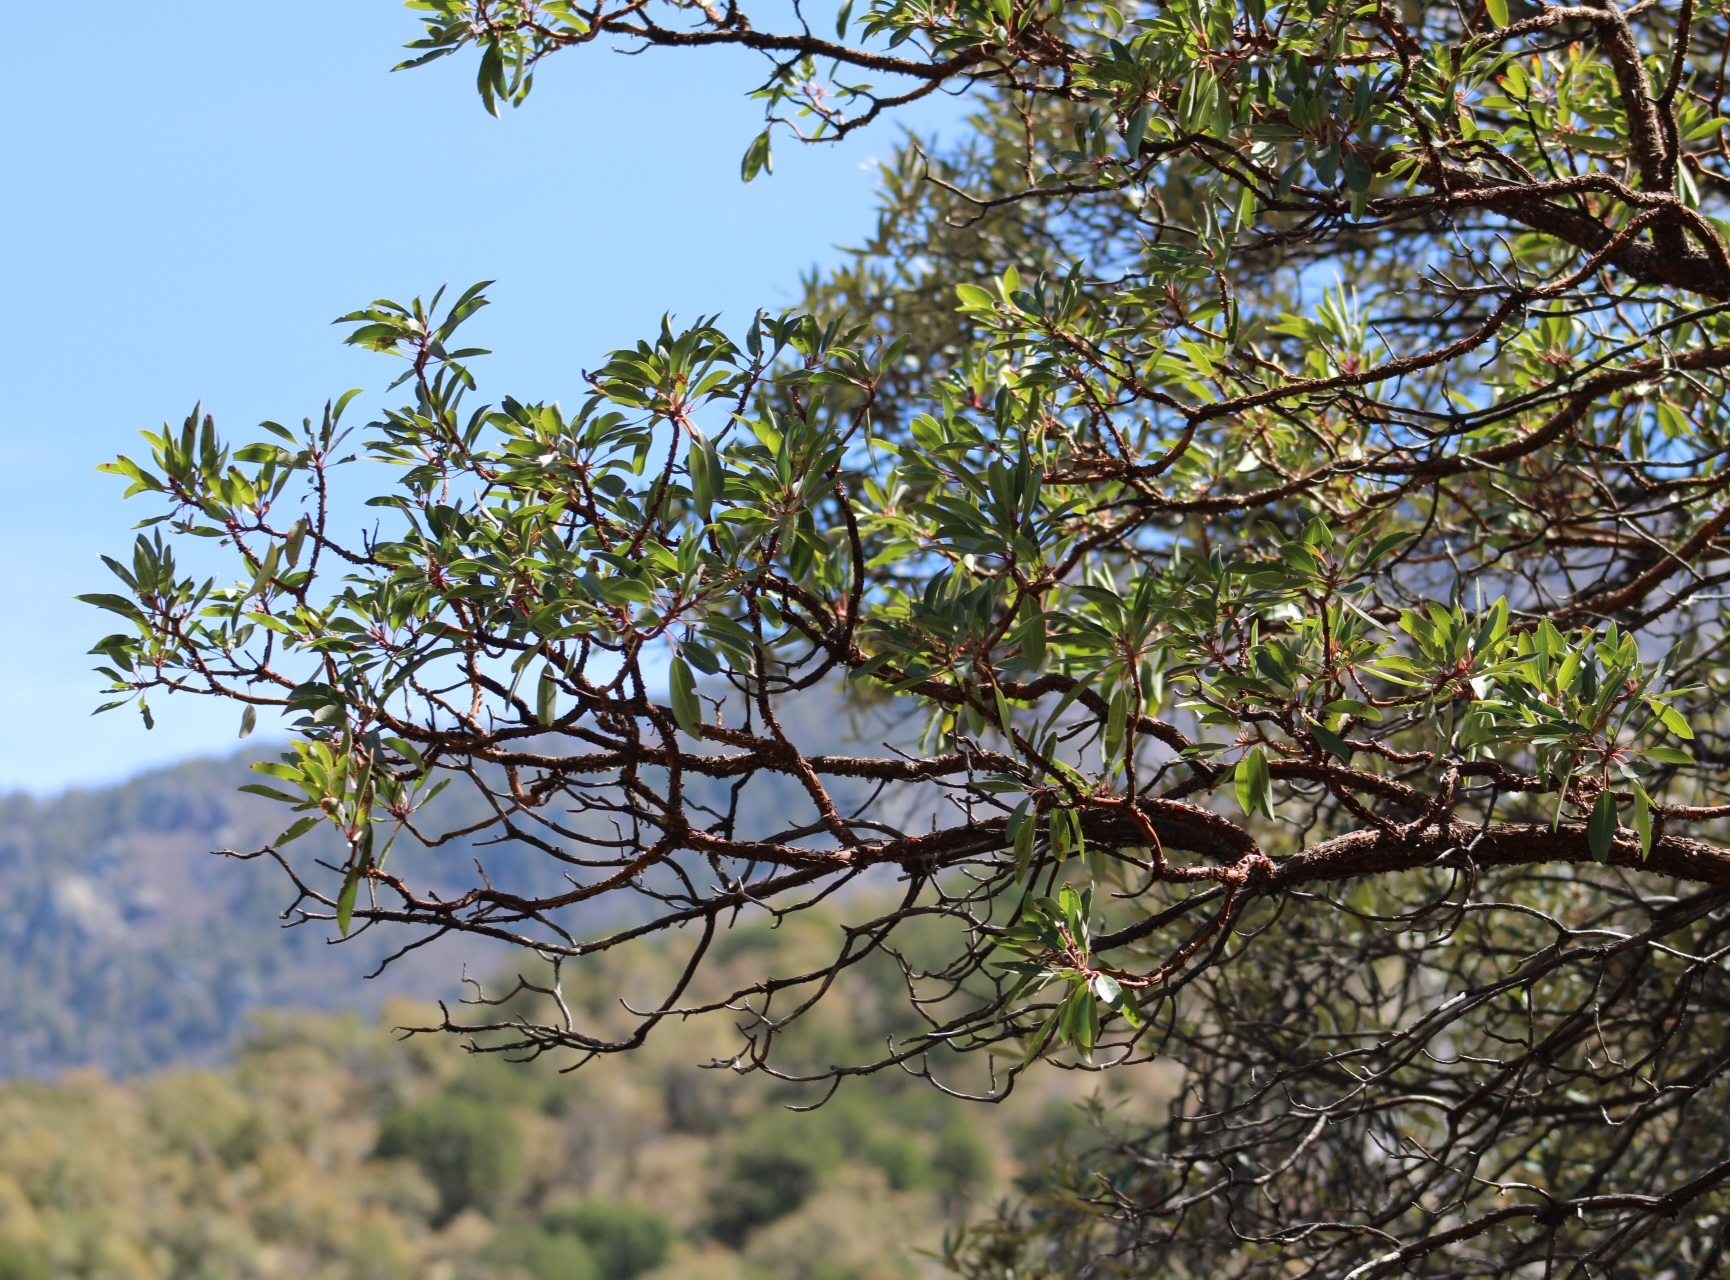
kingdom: Plantae
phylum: Tracheophyta
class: Magnoliopsida
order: Ericales
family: Ericaceae
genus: Arbutus
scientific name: Arbutus arizonica
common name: Arizona madrone
